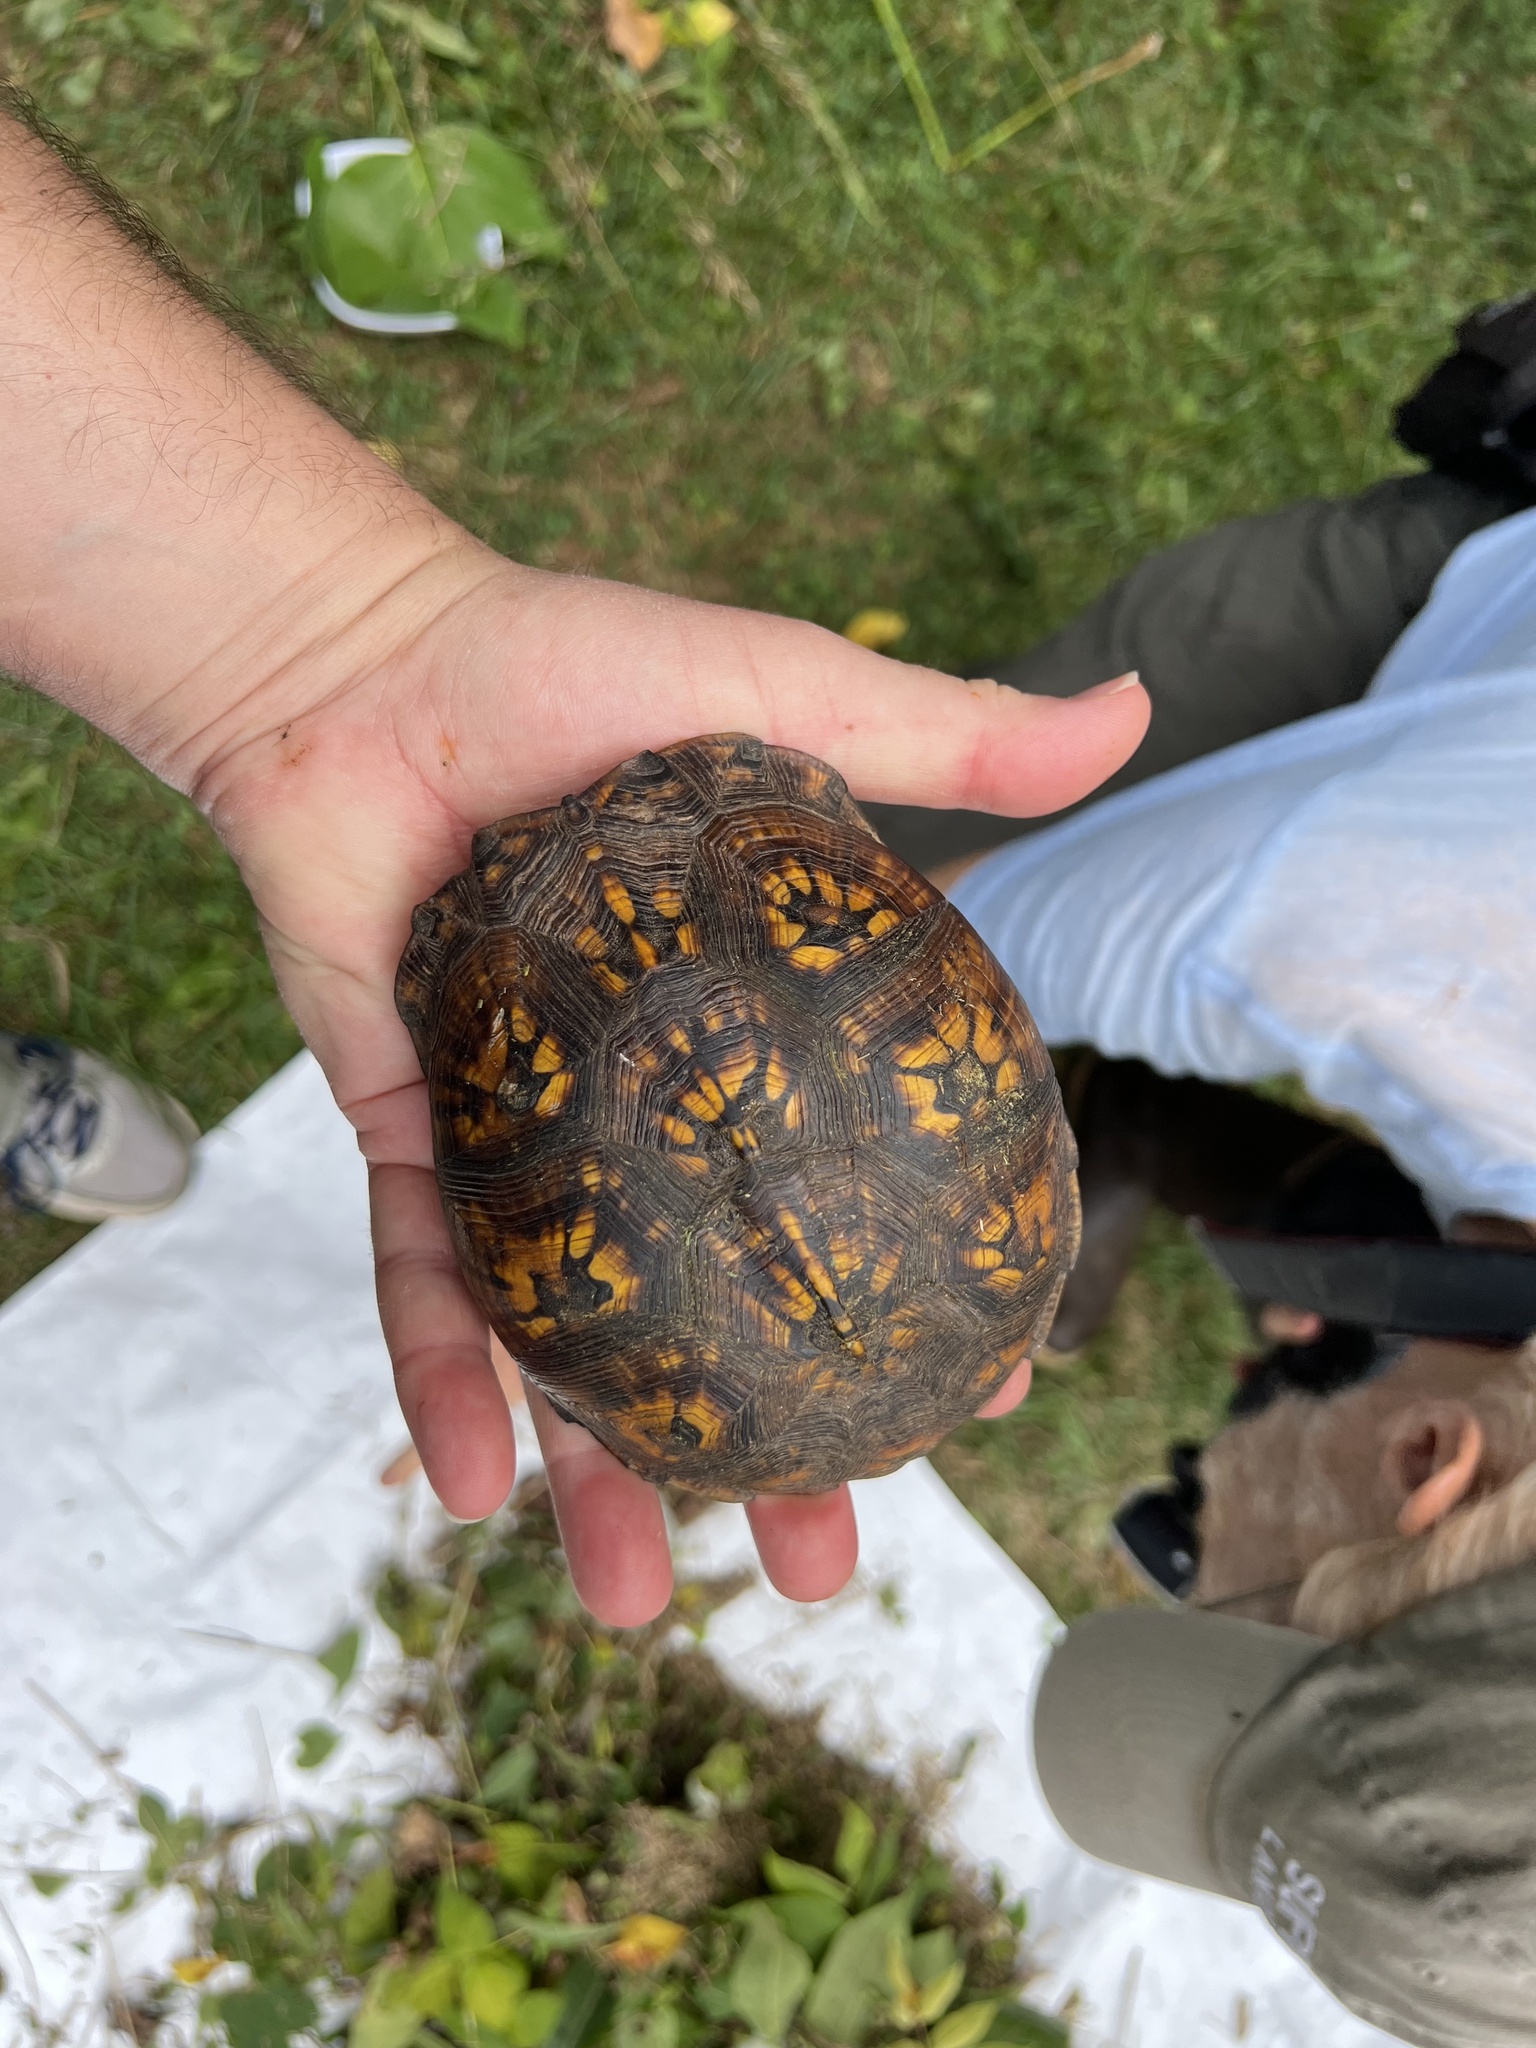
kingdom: Animalia
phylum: Chordata
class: Testudines
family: Emydidae
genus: Terrapene
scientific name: Terrapene carolina
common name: Common box turtle
